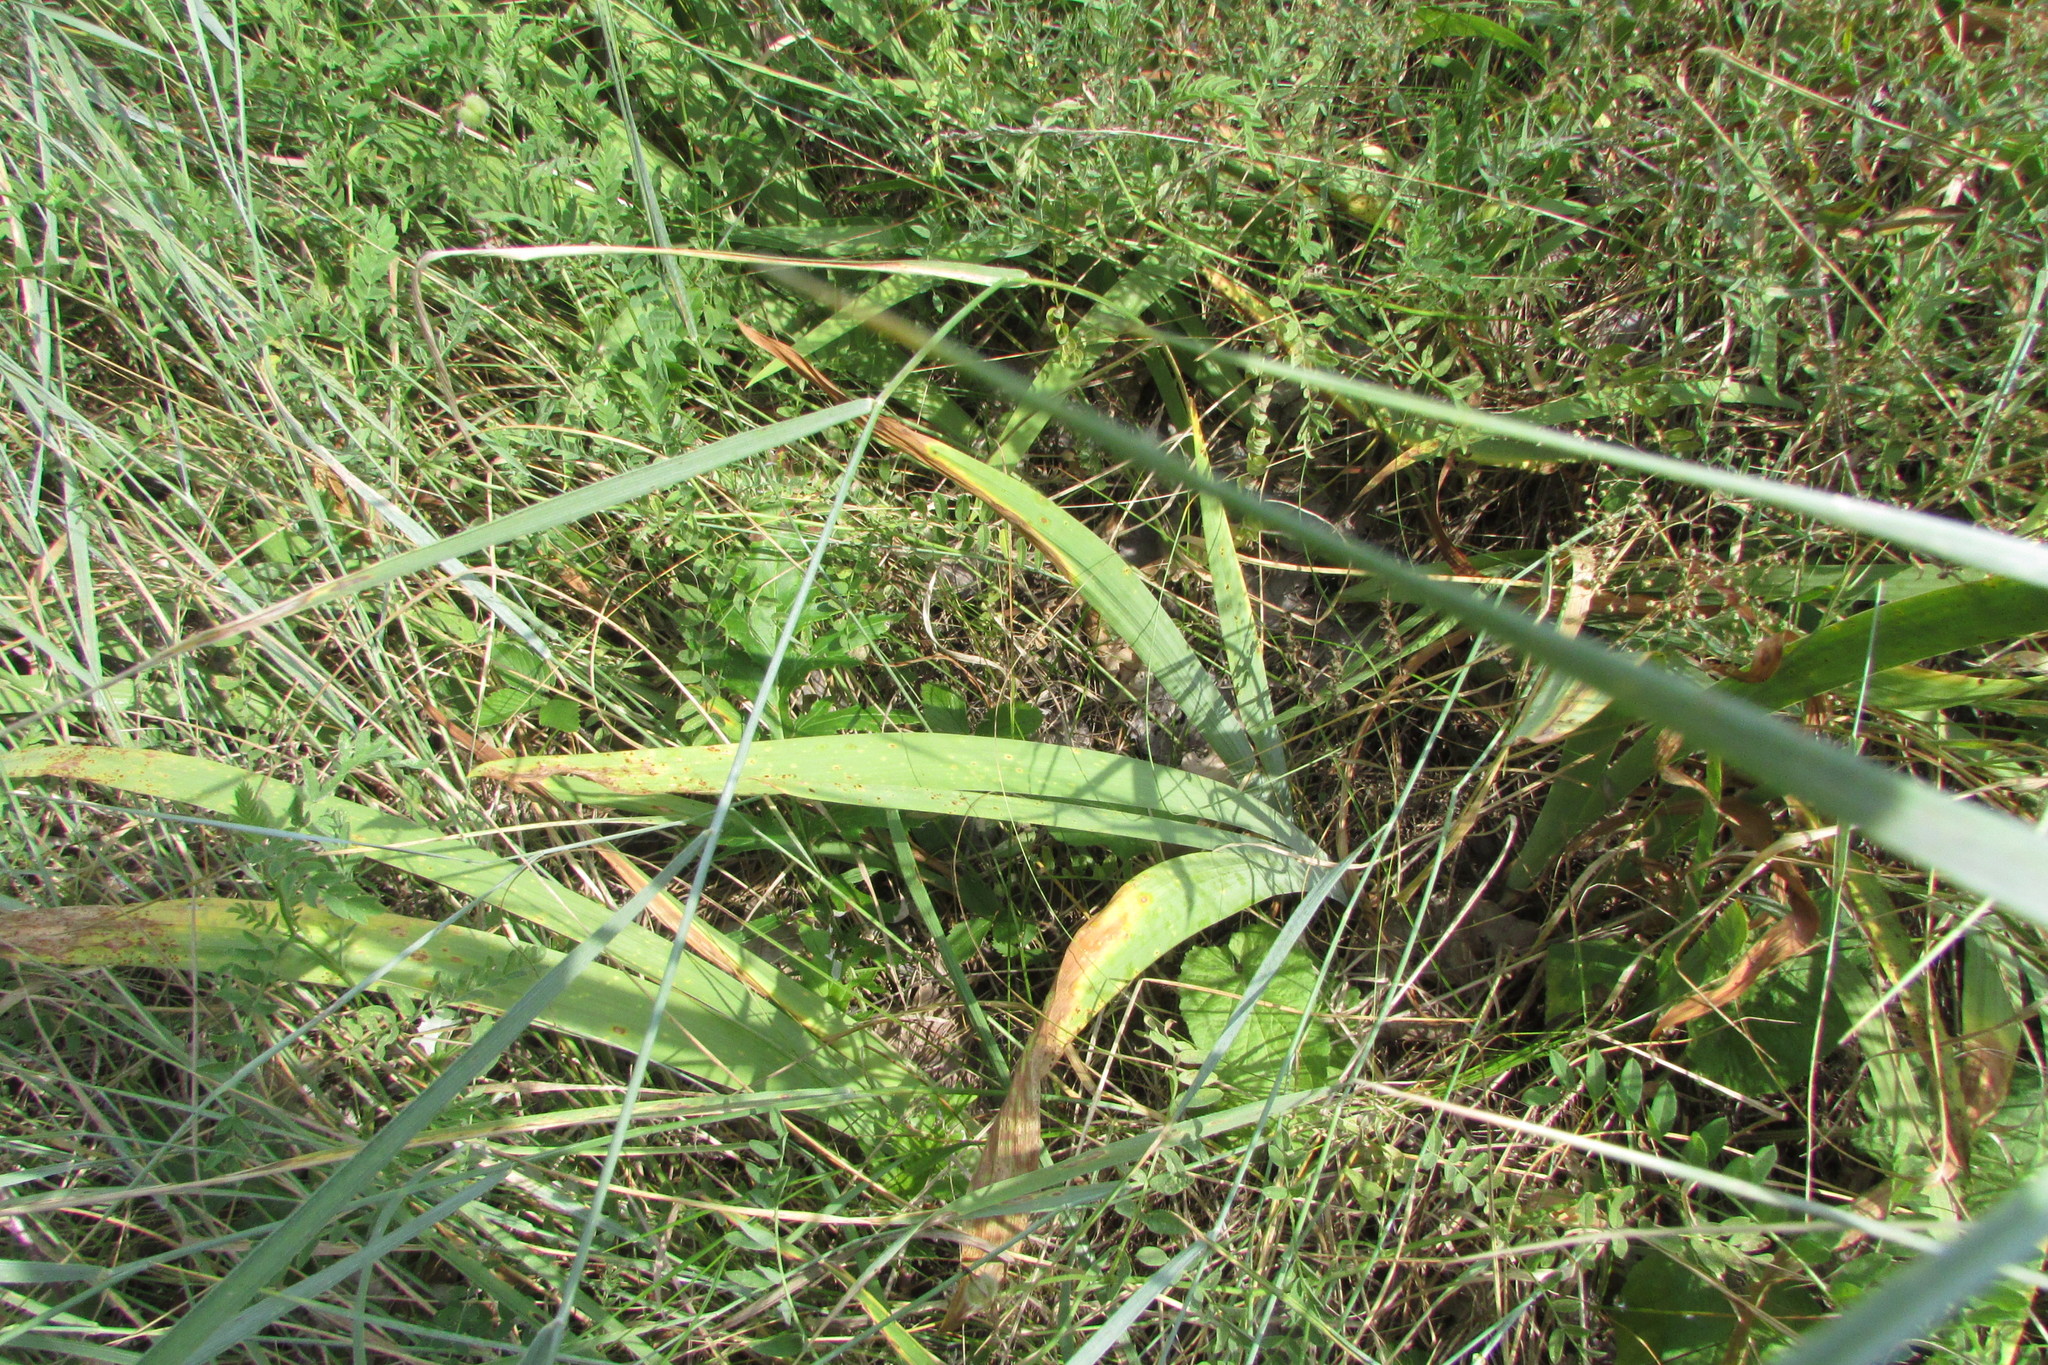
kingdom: Plantae
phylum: Tracheophyta
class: Liliopsida
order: Asparagales
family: Iridaceae
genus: Iris
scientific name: Iris aphylla
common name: Stool iris
